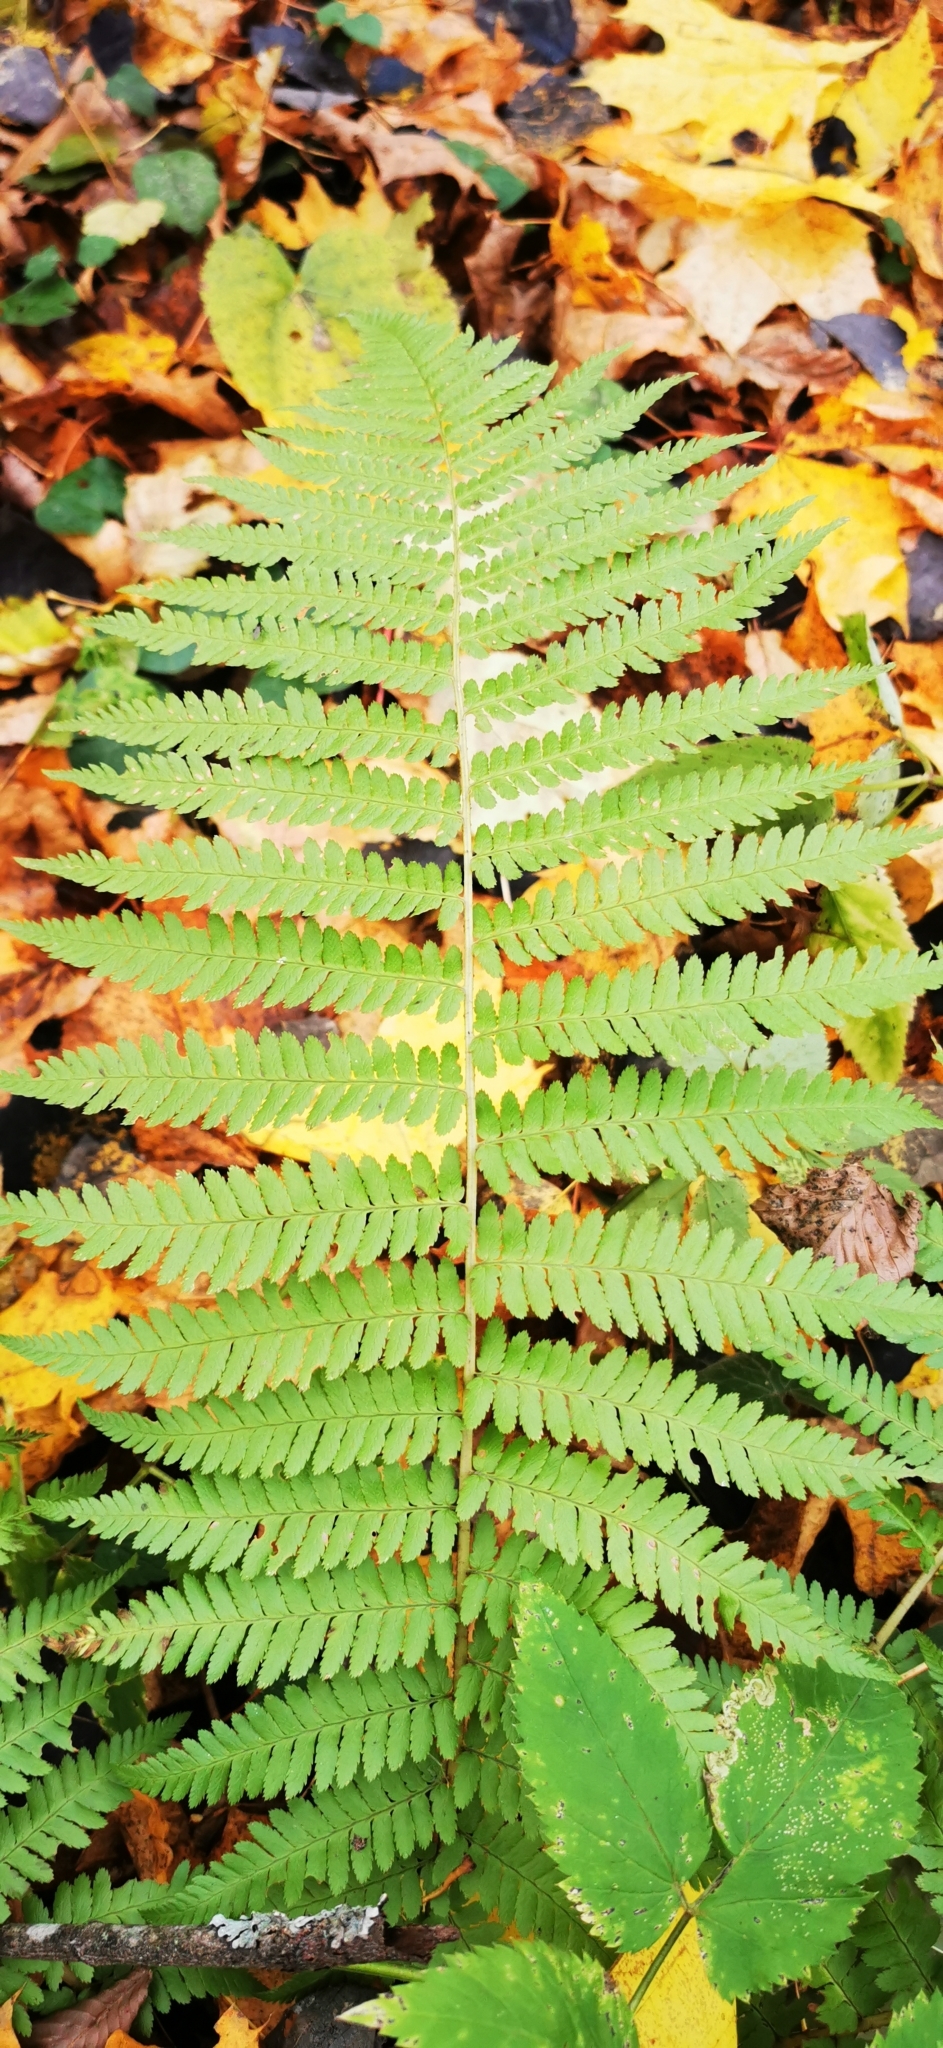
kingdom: Plantae
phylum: Tracheophyta
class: Polypodiopsida
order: Polypodiales
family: Dryopteridaceae
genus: Dryopteris
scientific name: Dryopteris filix-mas
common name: Male fern
